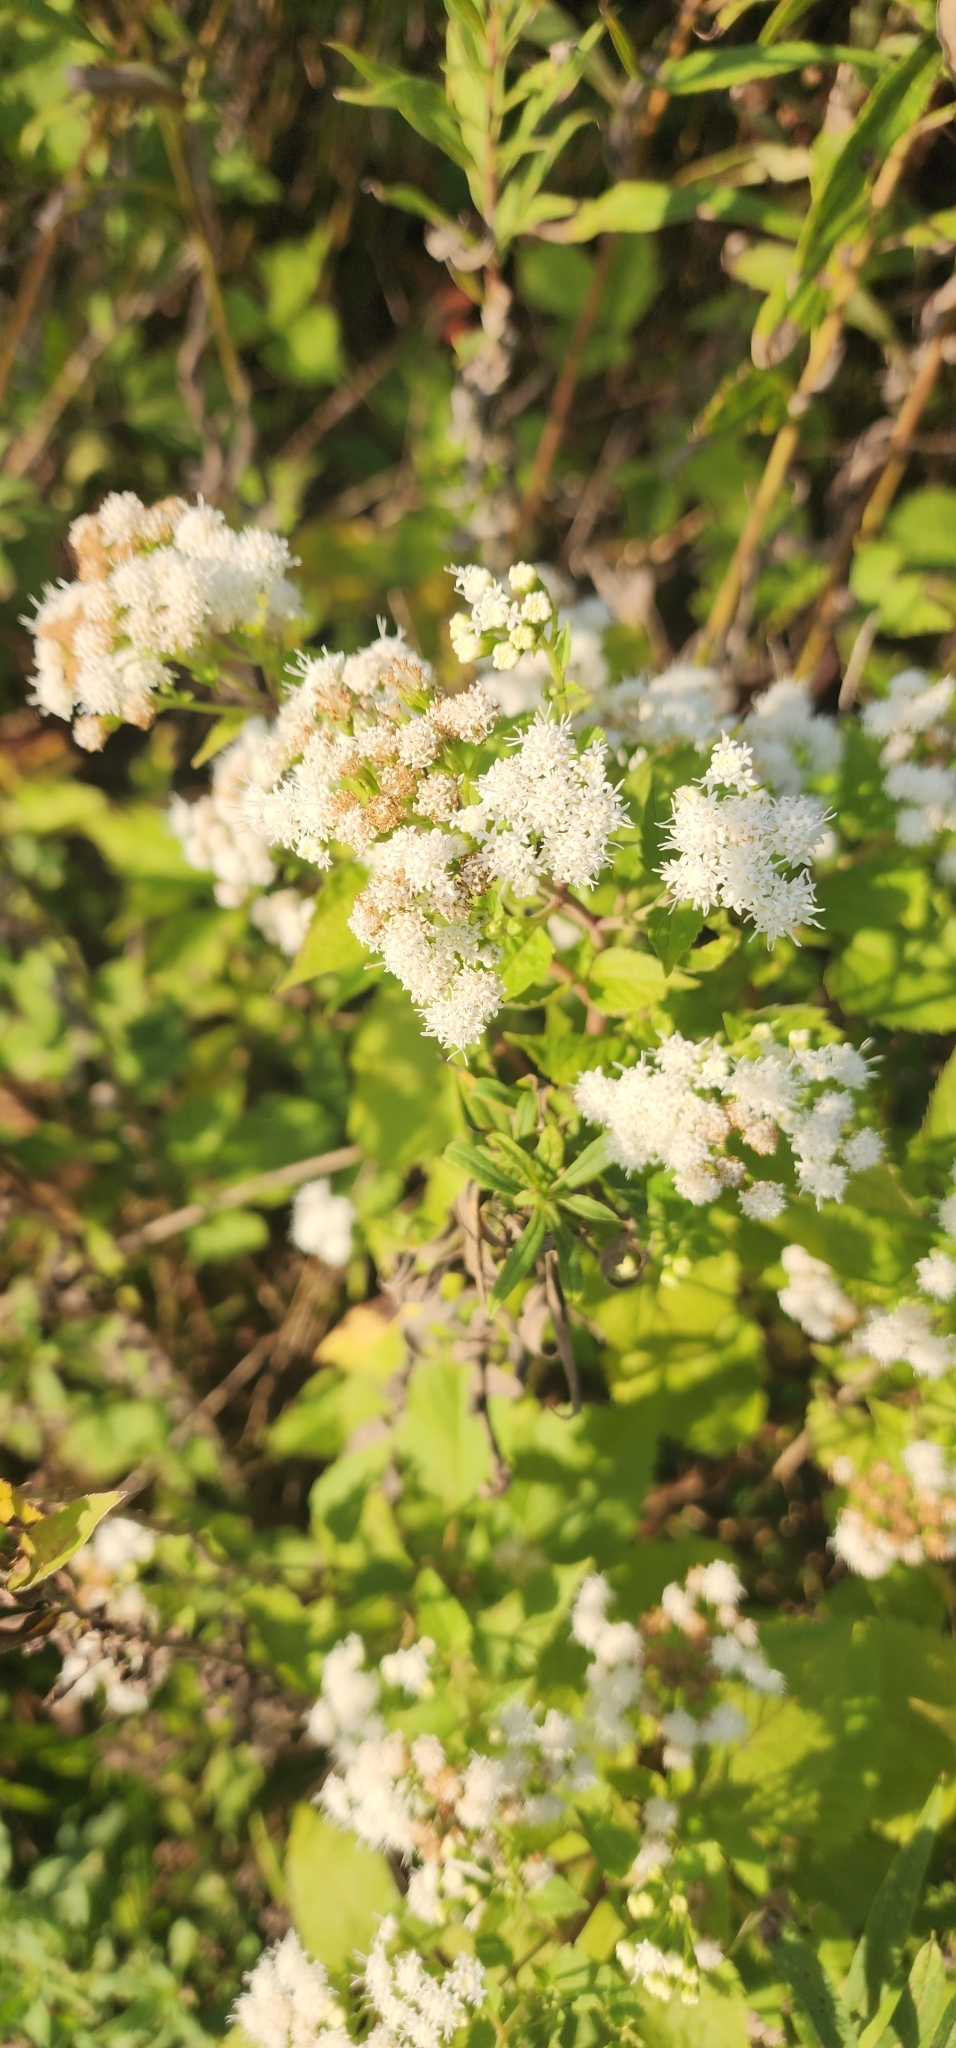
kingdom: Plantae
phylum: Tracheophyta
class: Magnoliopsida
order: Asterales
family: Asteraceae
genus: Ageratina
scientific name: Ageratina altissima
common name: White snakeroot
